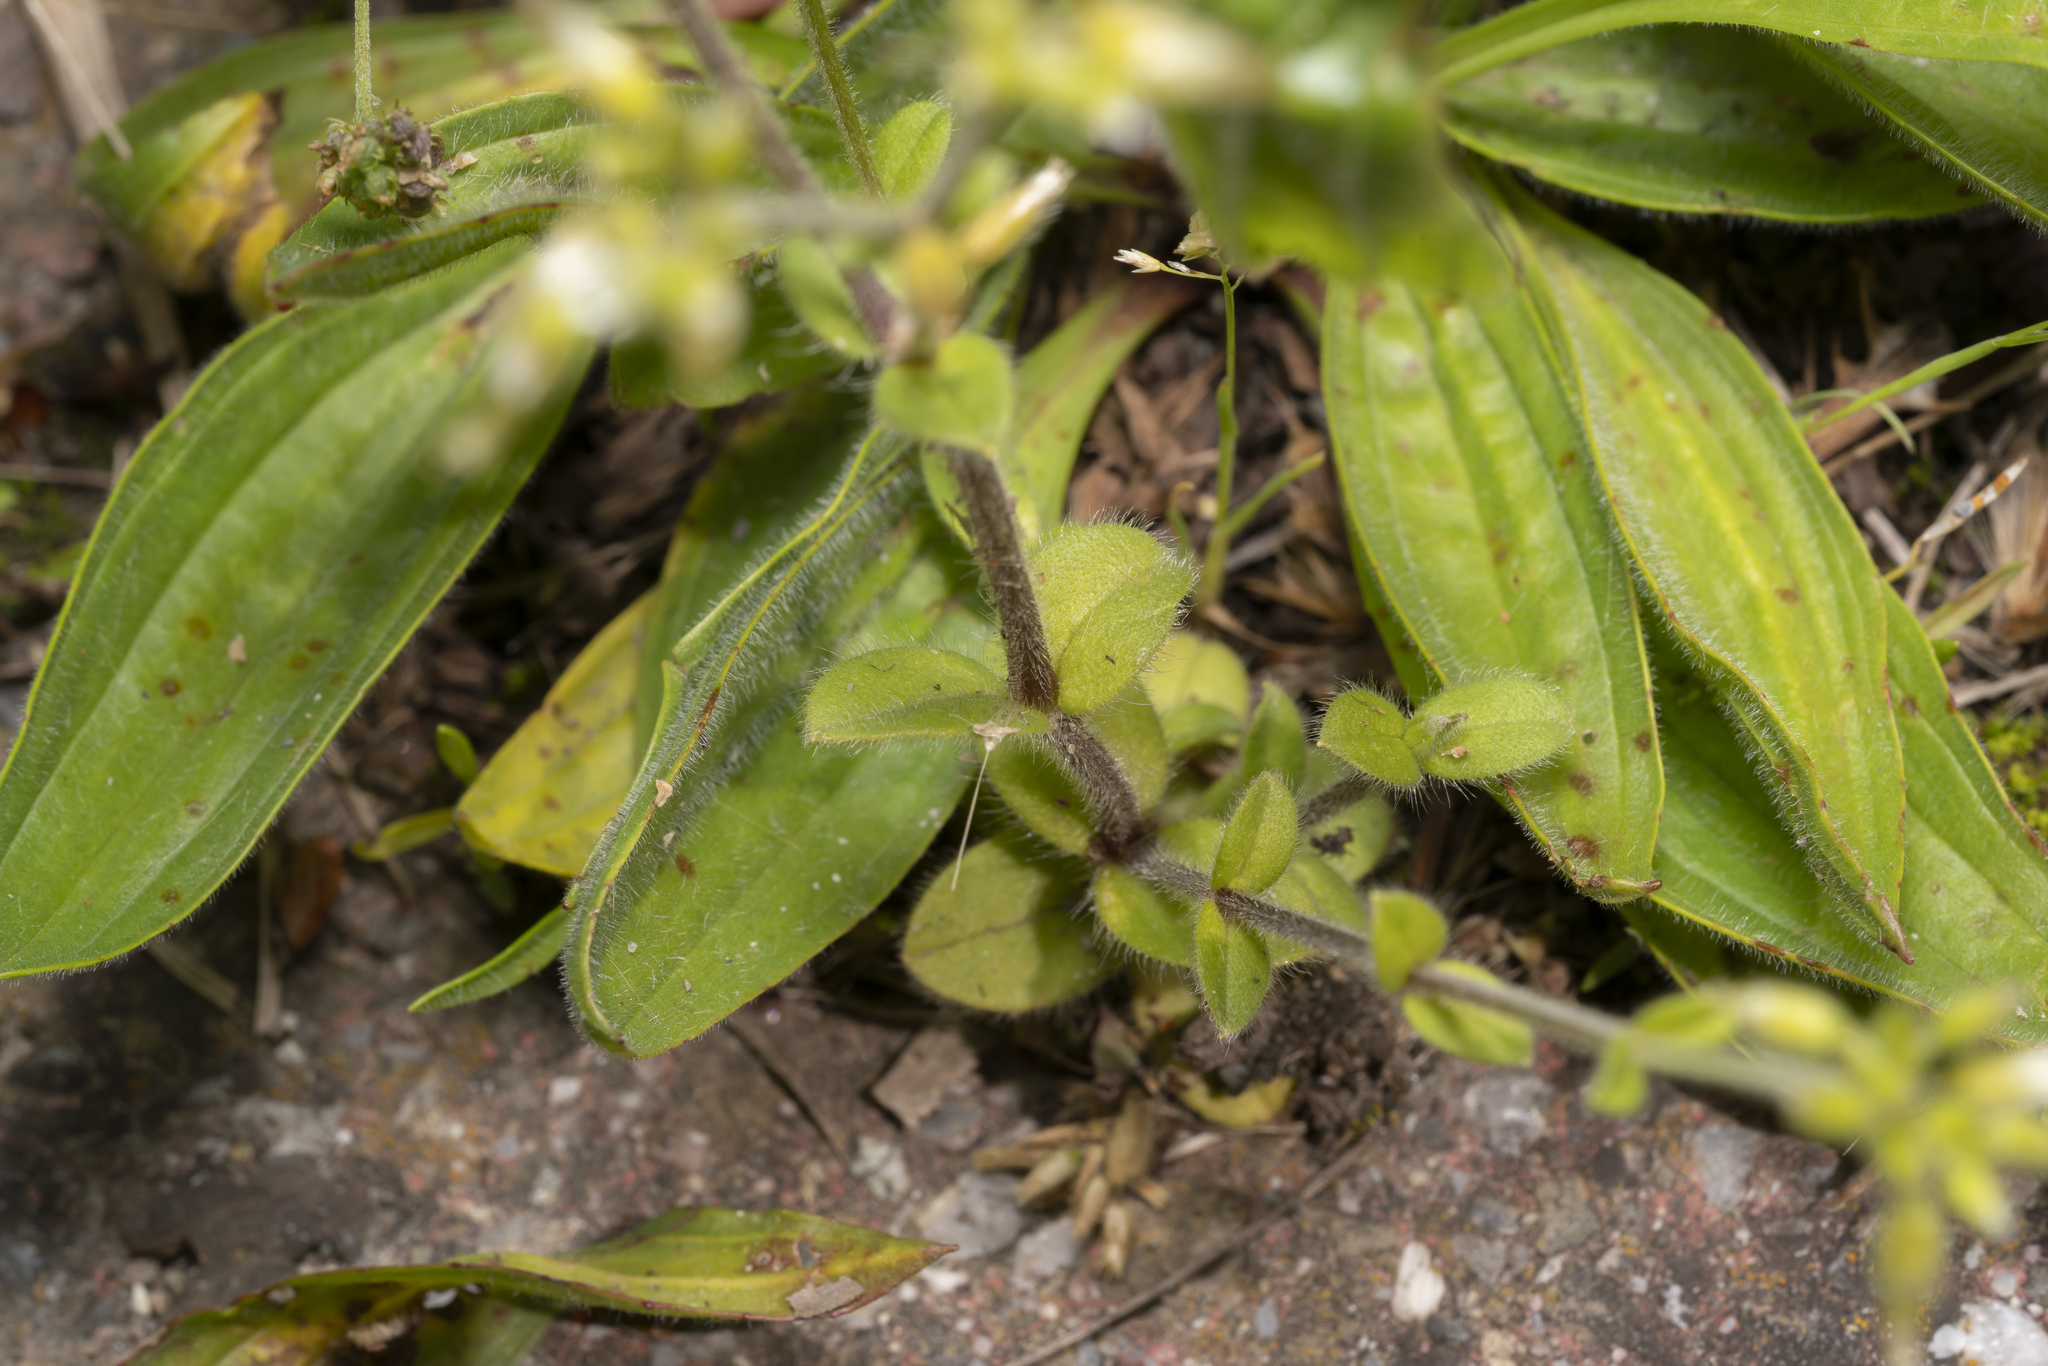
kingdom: Plantae
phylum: Tracheophyta
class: Magnoliopsida
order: Caryophyllales
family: Caryophyllaceae
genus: Cerastium
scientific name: Cerastium glomeratum
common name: Sticky chickweed
